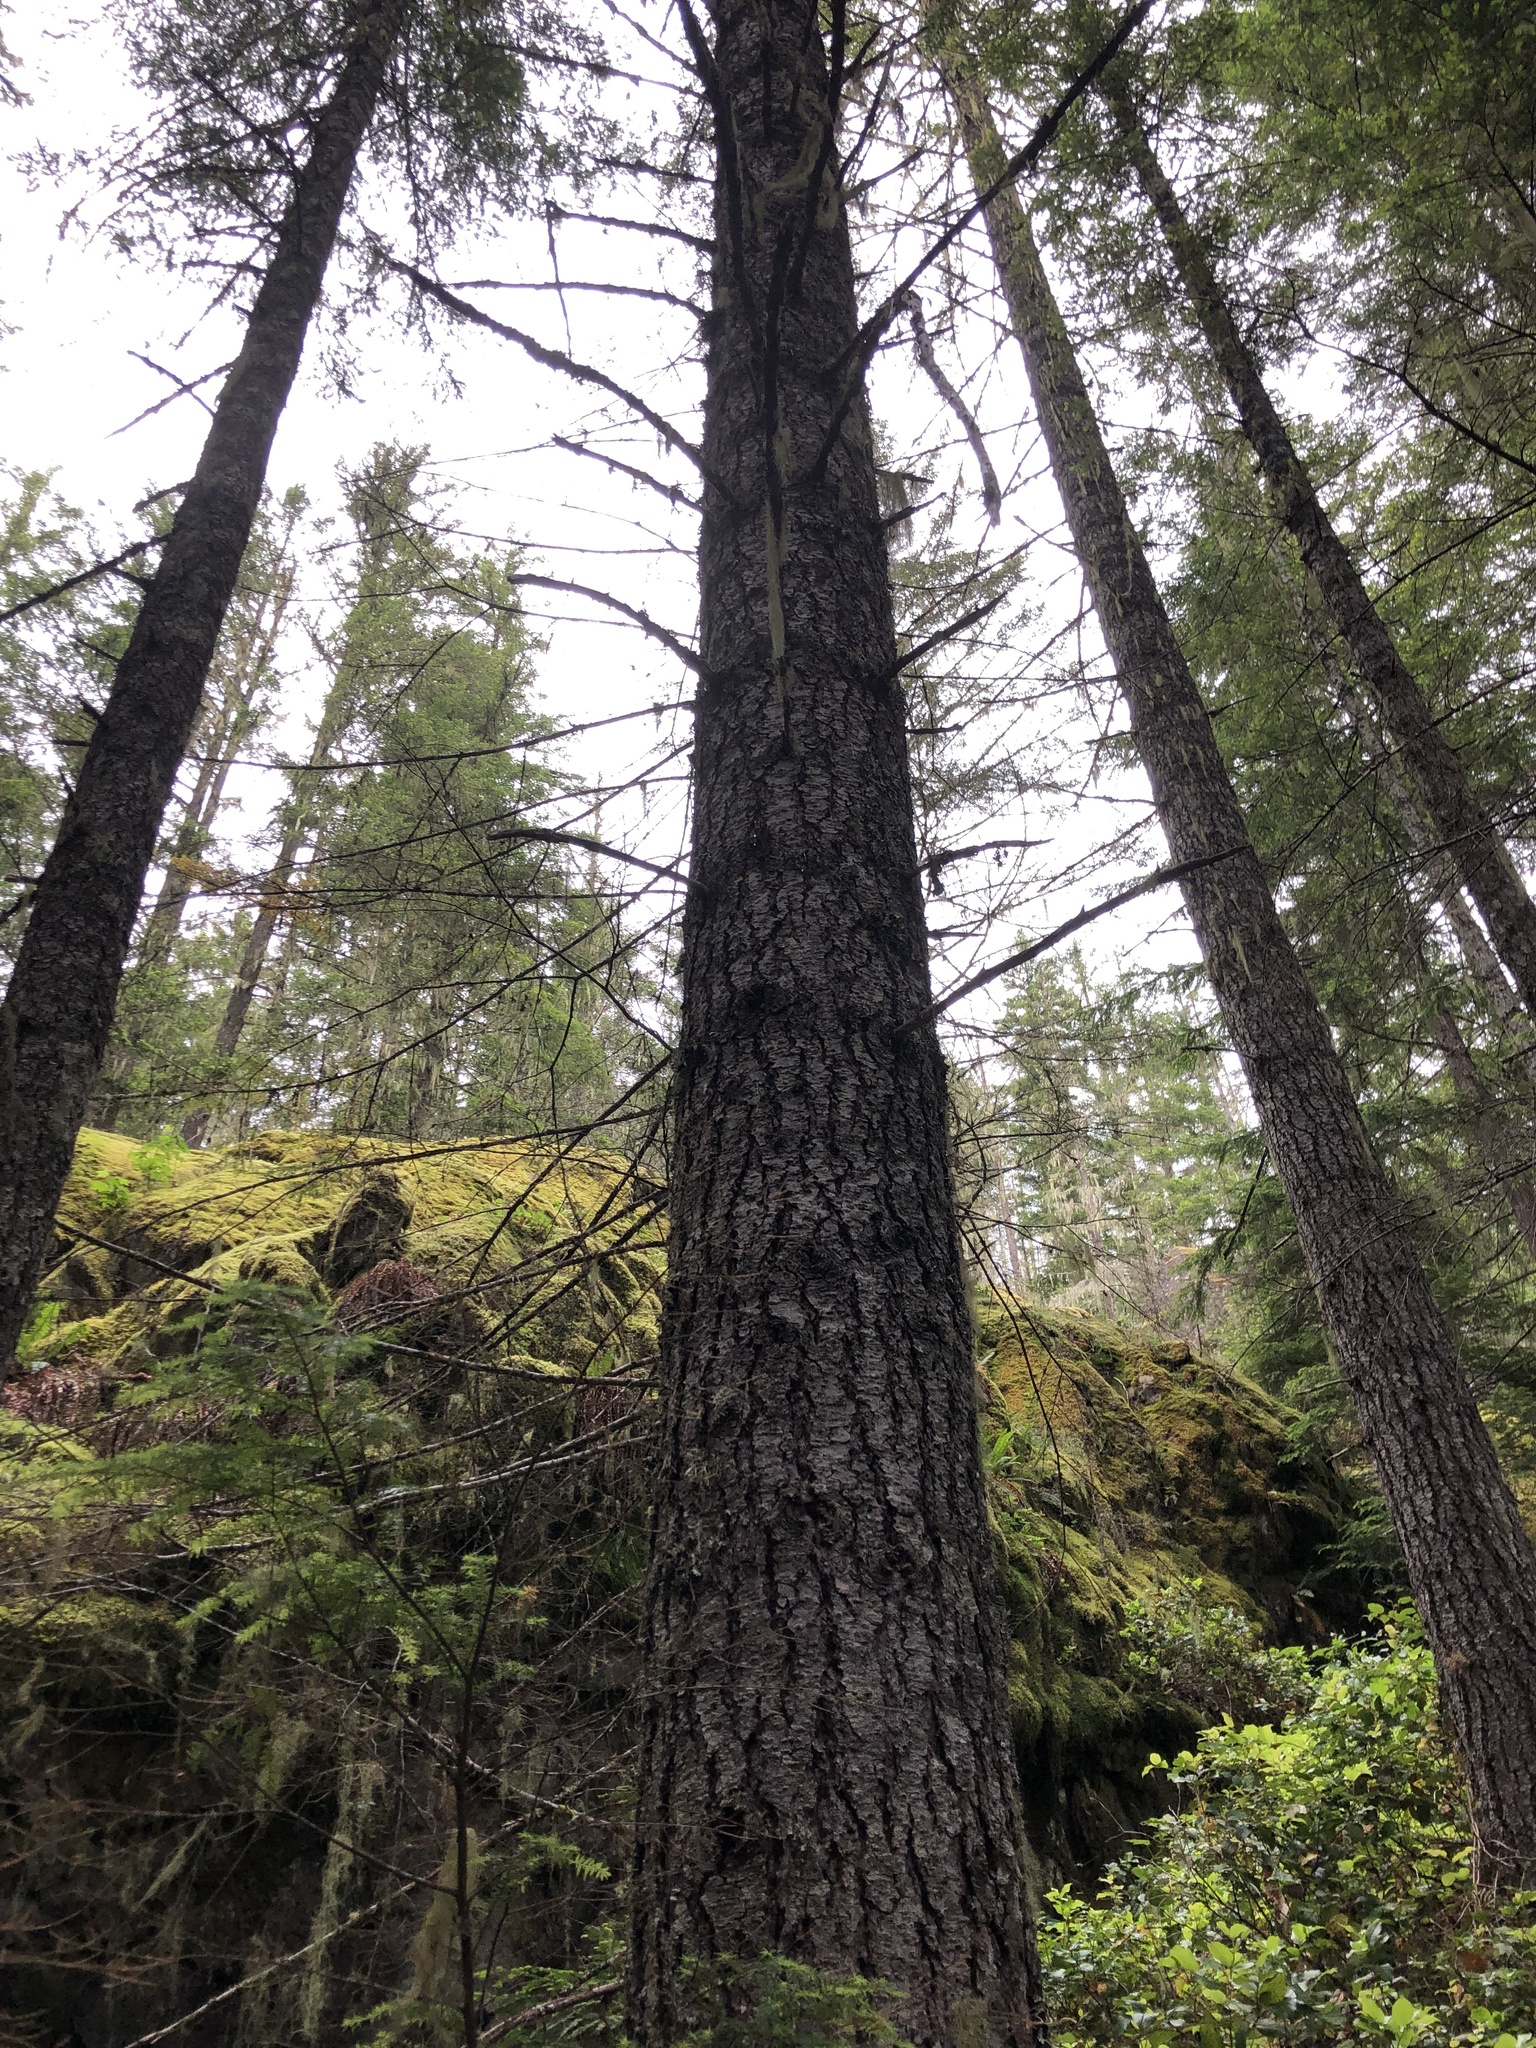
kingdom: Plantae
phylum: Tracheophyta
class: Pinopsida
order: Pinales
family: Pinaceae
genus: Pseudotsuga
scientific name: Pseudotsuga menziesii
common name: Douglas fir
